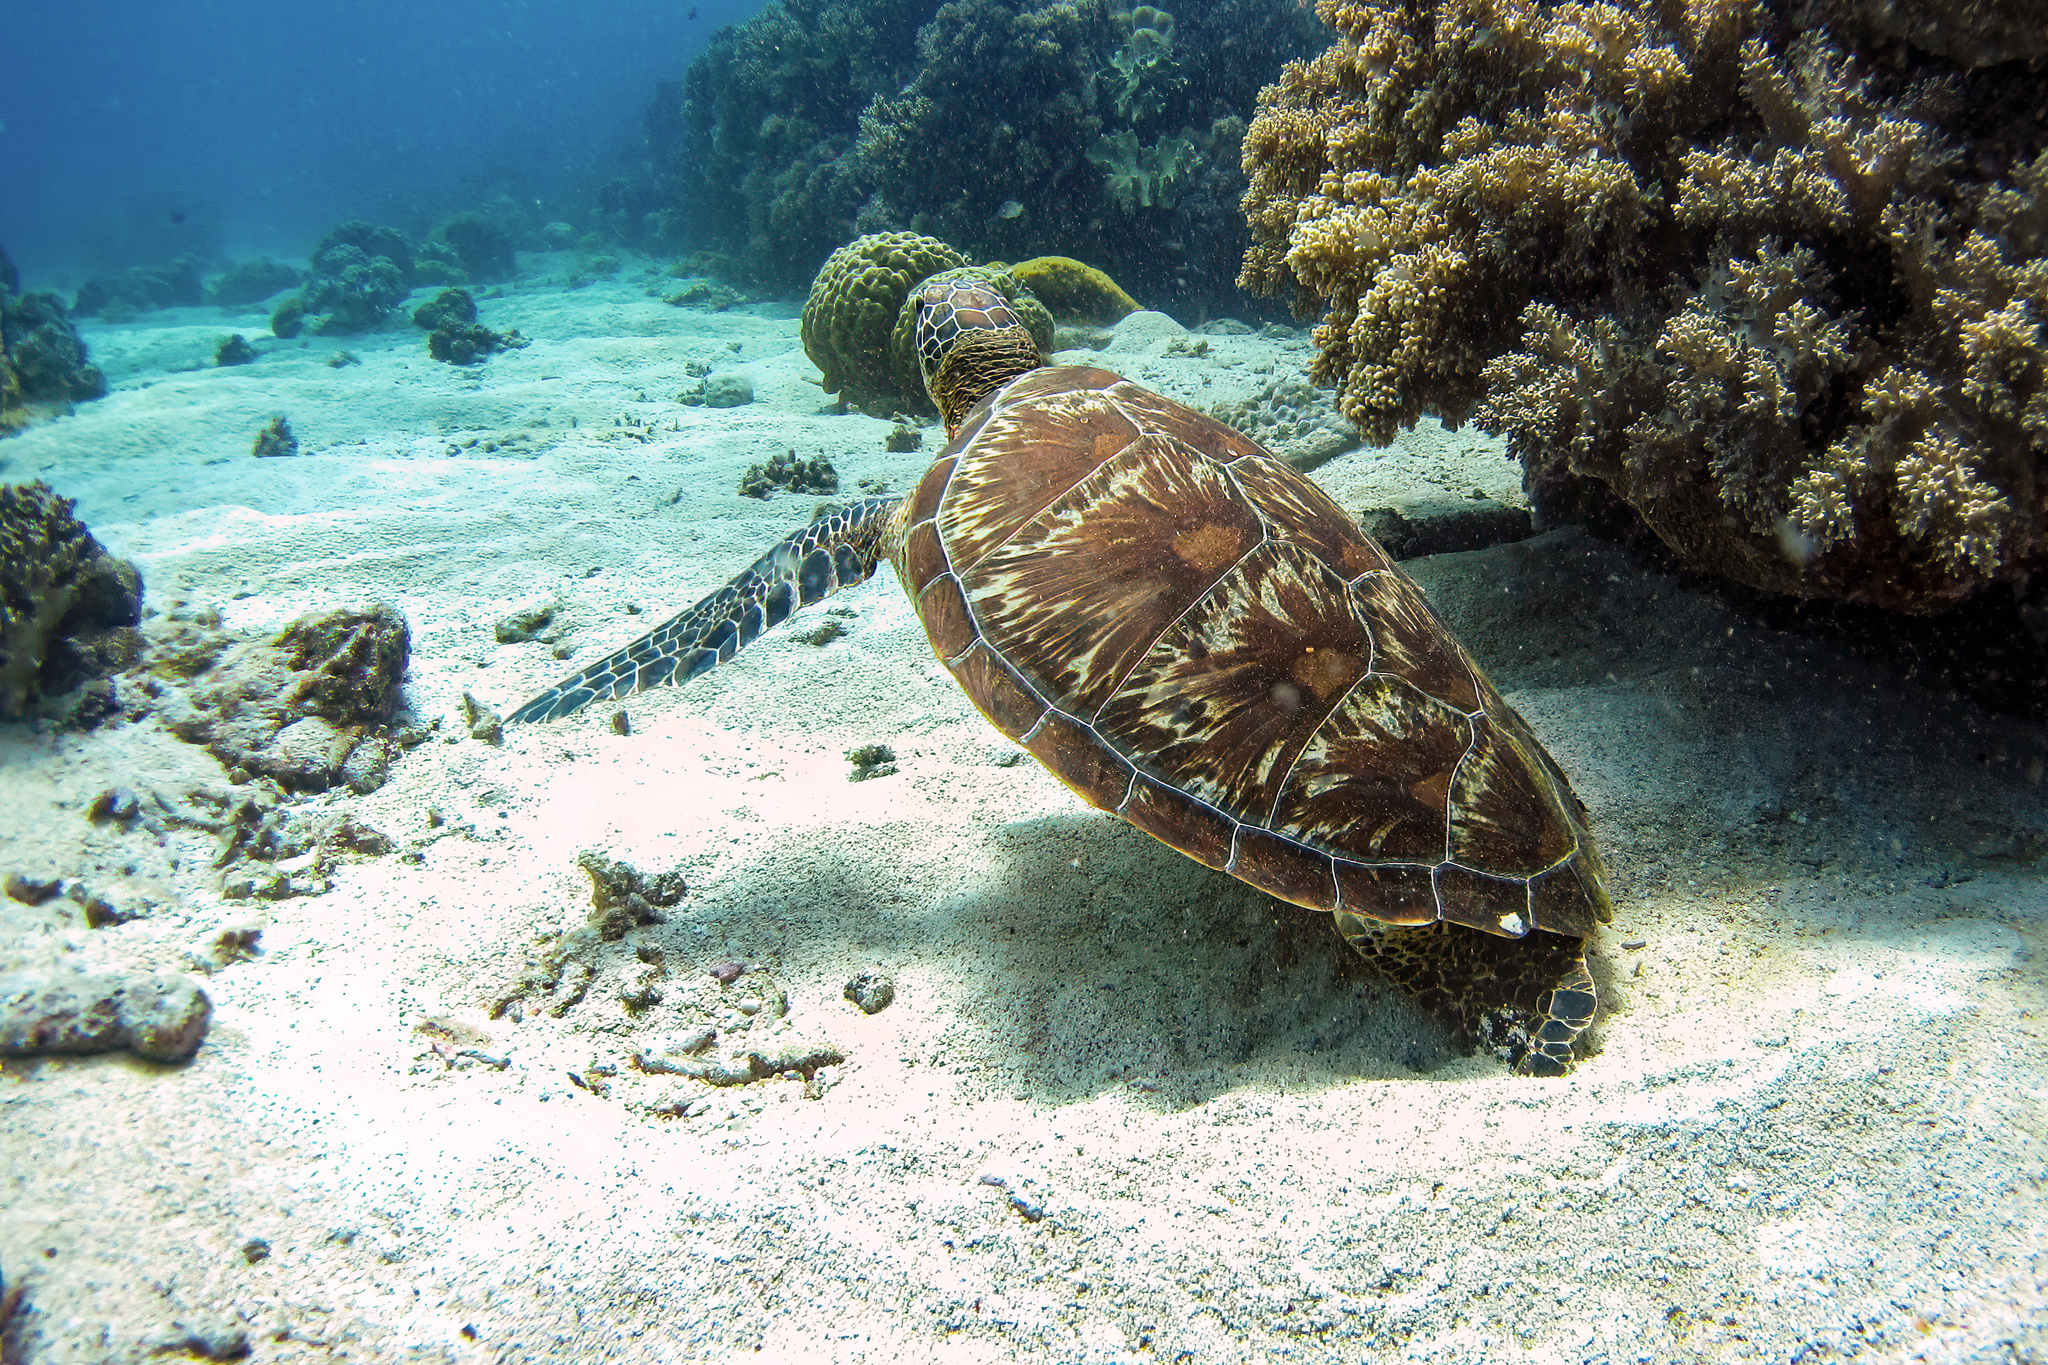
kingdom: Animalia
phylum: Chordata
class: Testudines
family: Cheloniidae
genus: Chelonia
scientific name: Chelonia mydas
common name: Green turtle
